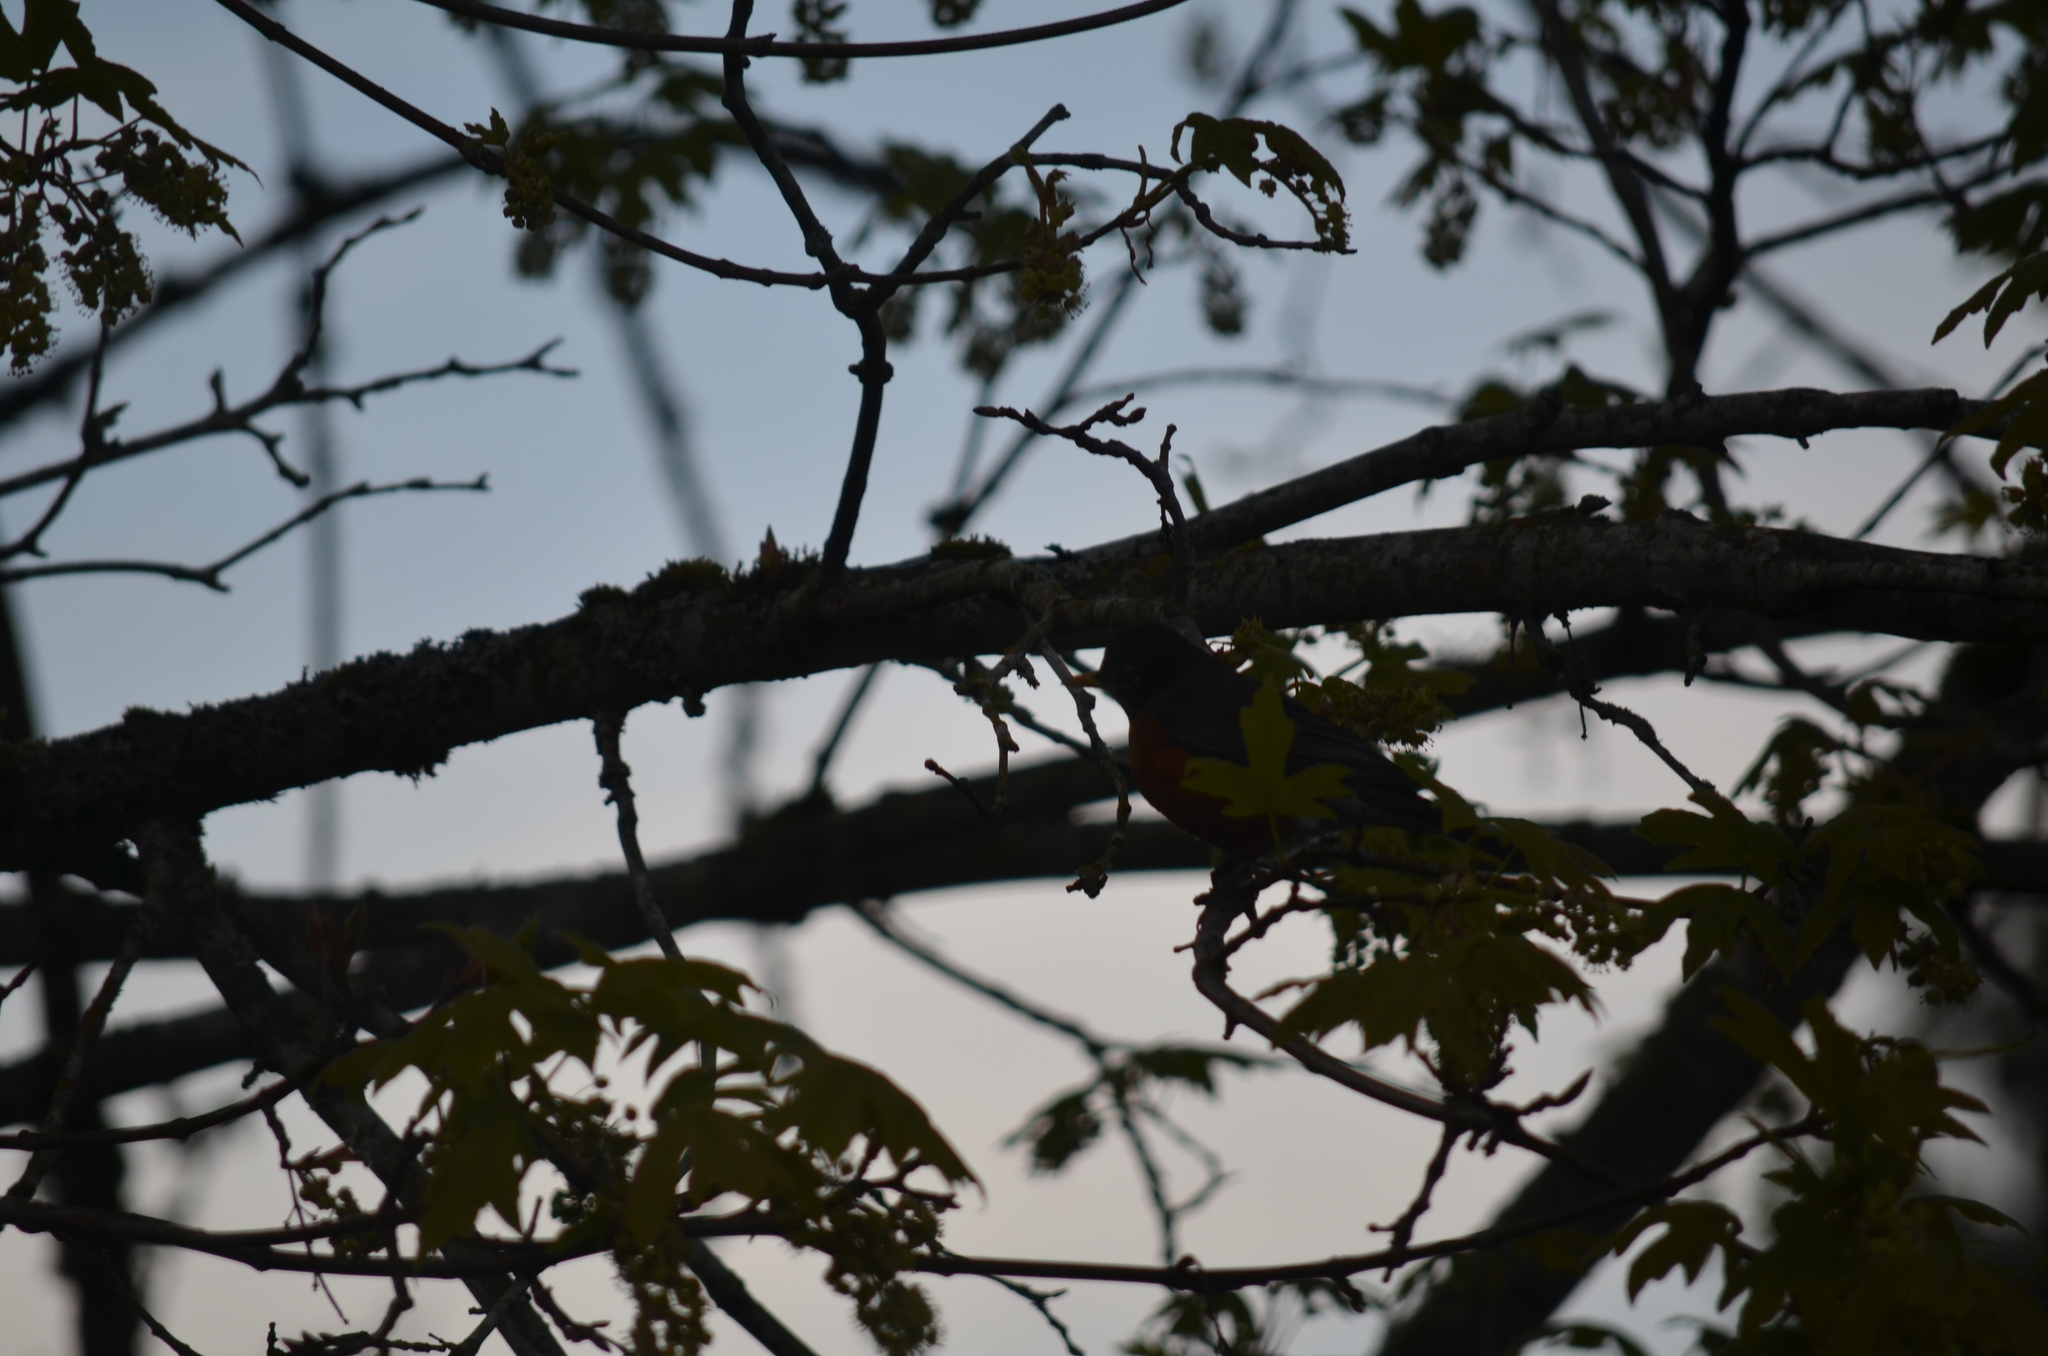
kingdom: Animalia
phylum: Chordata
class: Aves
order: Passeriformes
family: Turdidae
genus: Turdus
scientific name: Turdus migratorius
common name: American robin
